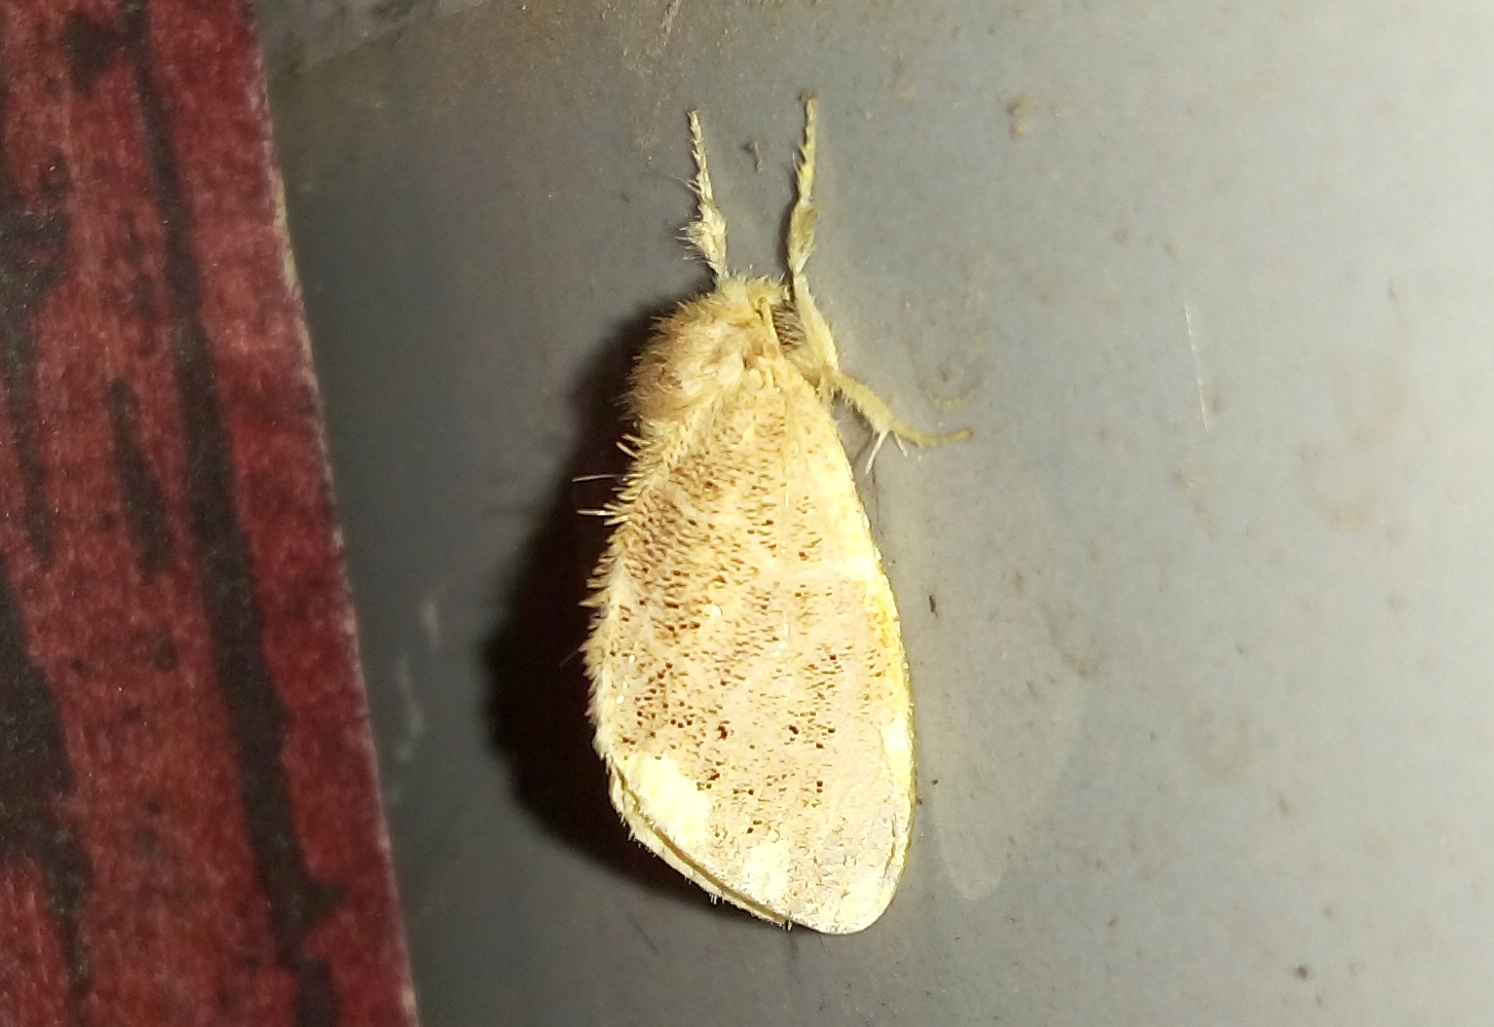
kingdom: Animalia
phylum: Arthropoda
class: Insecta
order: Lepidoptera
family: Erebidae
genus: Orvasca
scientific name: Orvasca subnotata
